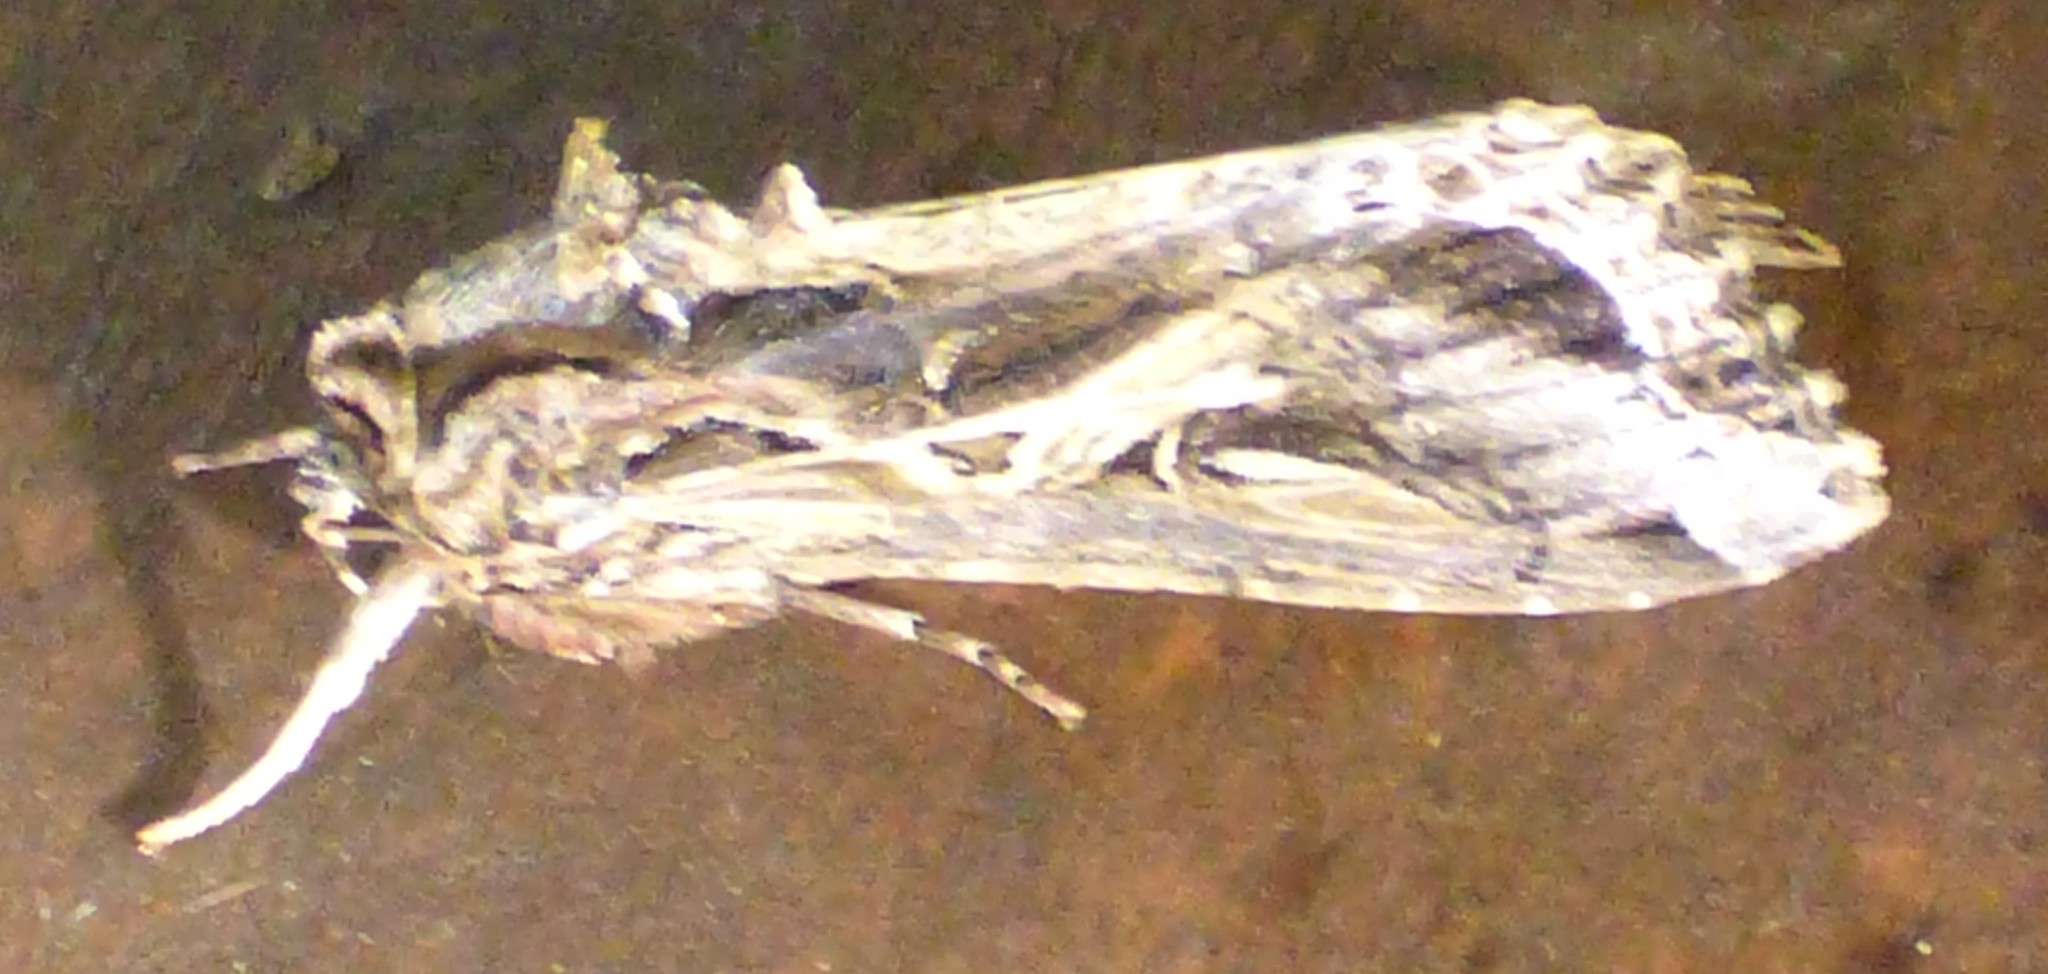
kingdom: Animalia
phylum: Arthropoda
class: Insecta
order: Lepidoptera
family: Noctuidae
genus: Spodoptera
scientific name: Spodoptera dolichos
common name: Sweetpotato armyworm
